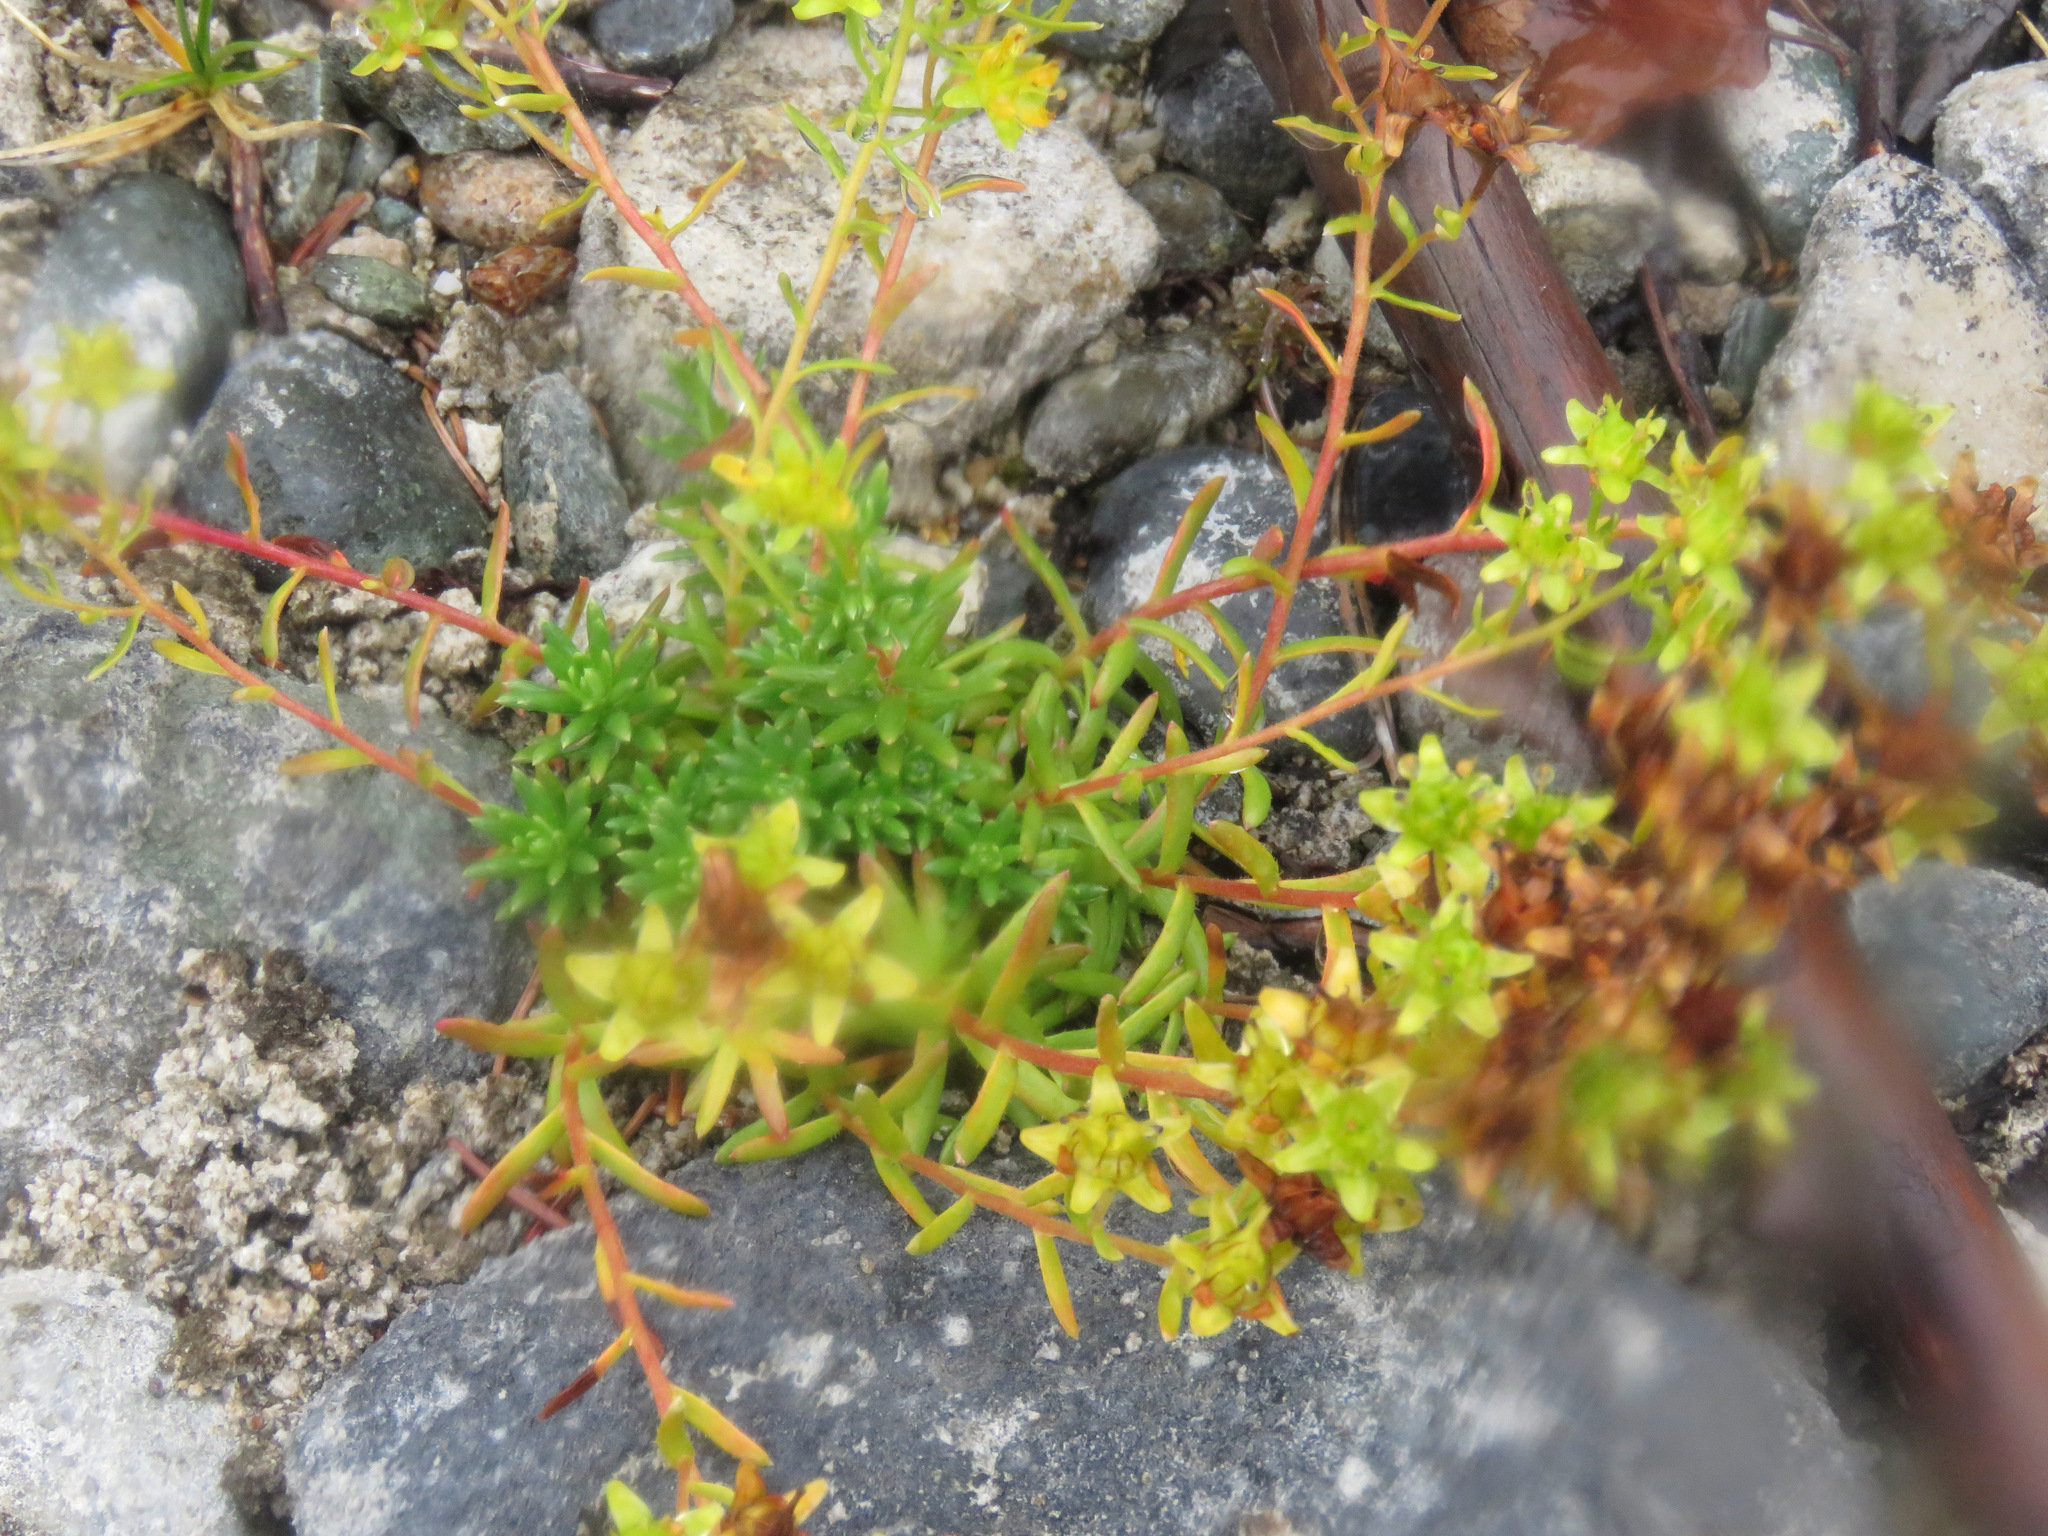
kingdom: Plantae
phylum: Tracheophyta
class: Magnoliopsida
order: Saxifragales
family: Saxifragaceae
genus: Saxifraga
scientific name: Saxifraga aizoides
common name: Yellow mountain saxifrage
